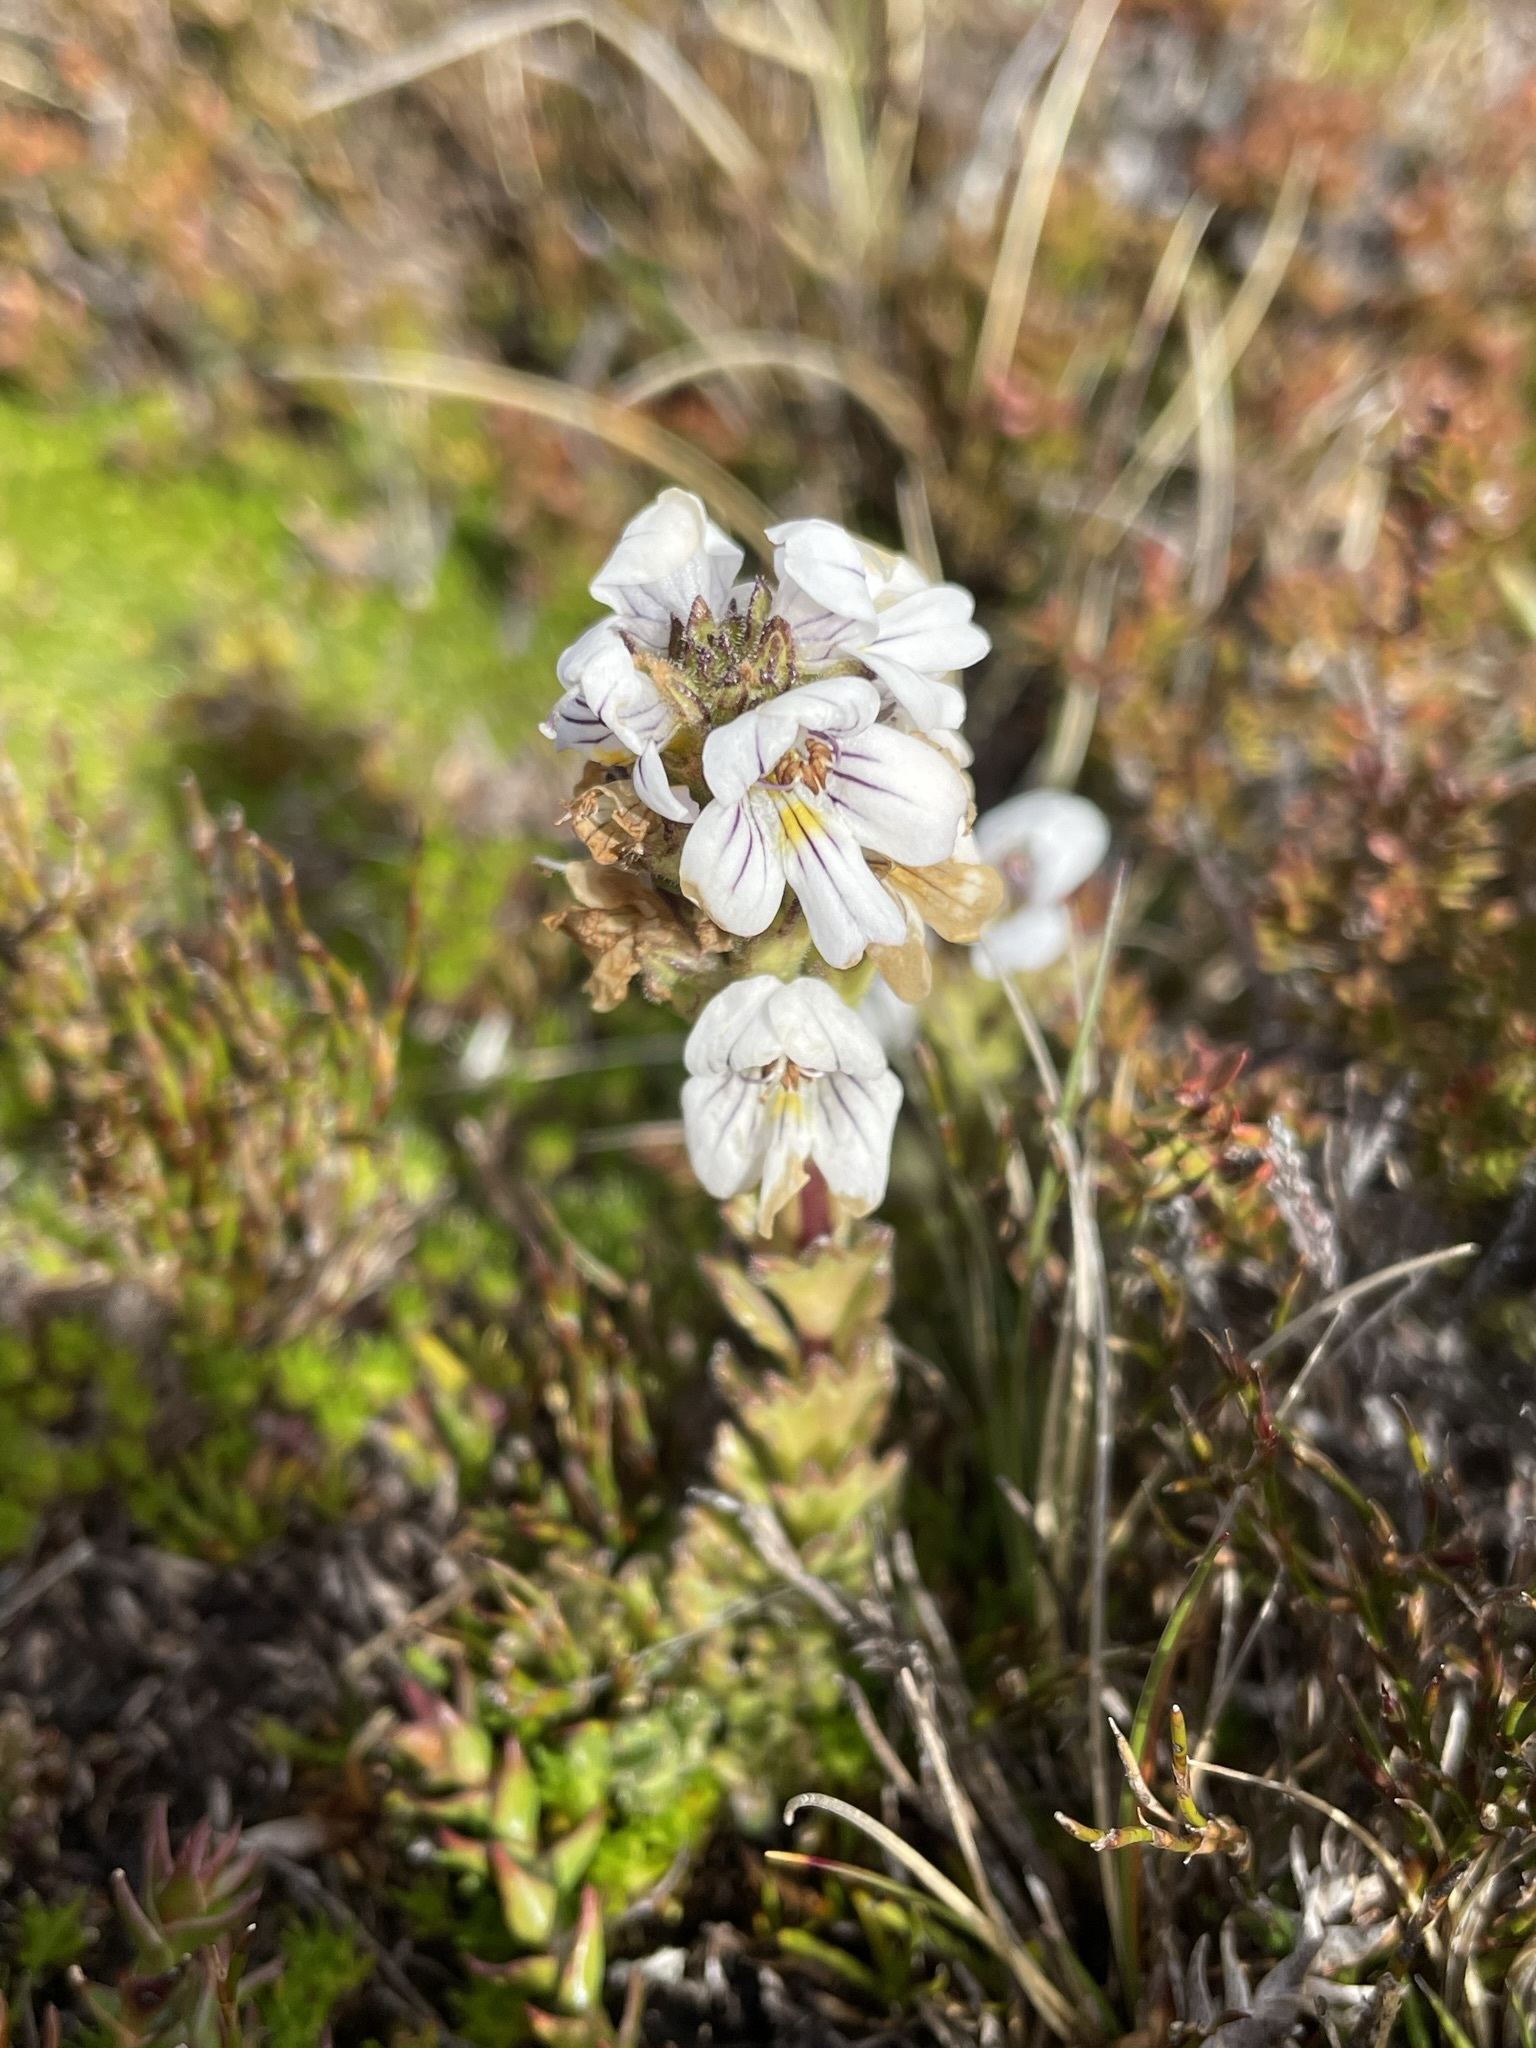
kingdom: Plantae
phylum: Tracheophyta
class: Magnoliopsida
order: Lamiales
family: Orobanchaceae
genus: Euphrasia
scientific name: Euphrasia striata
